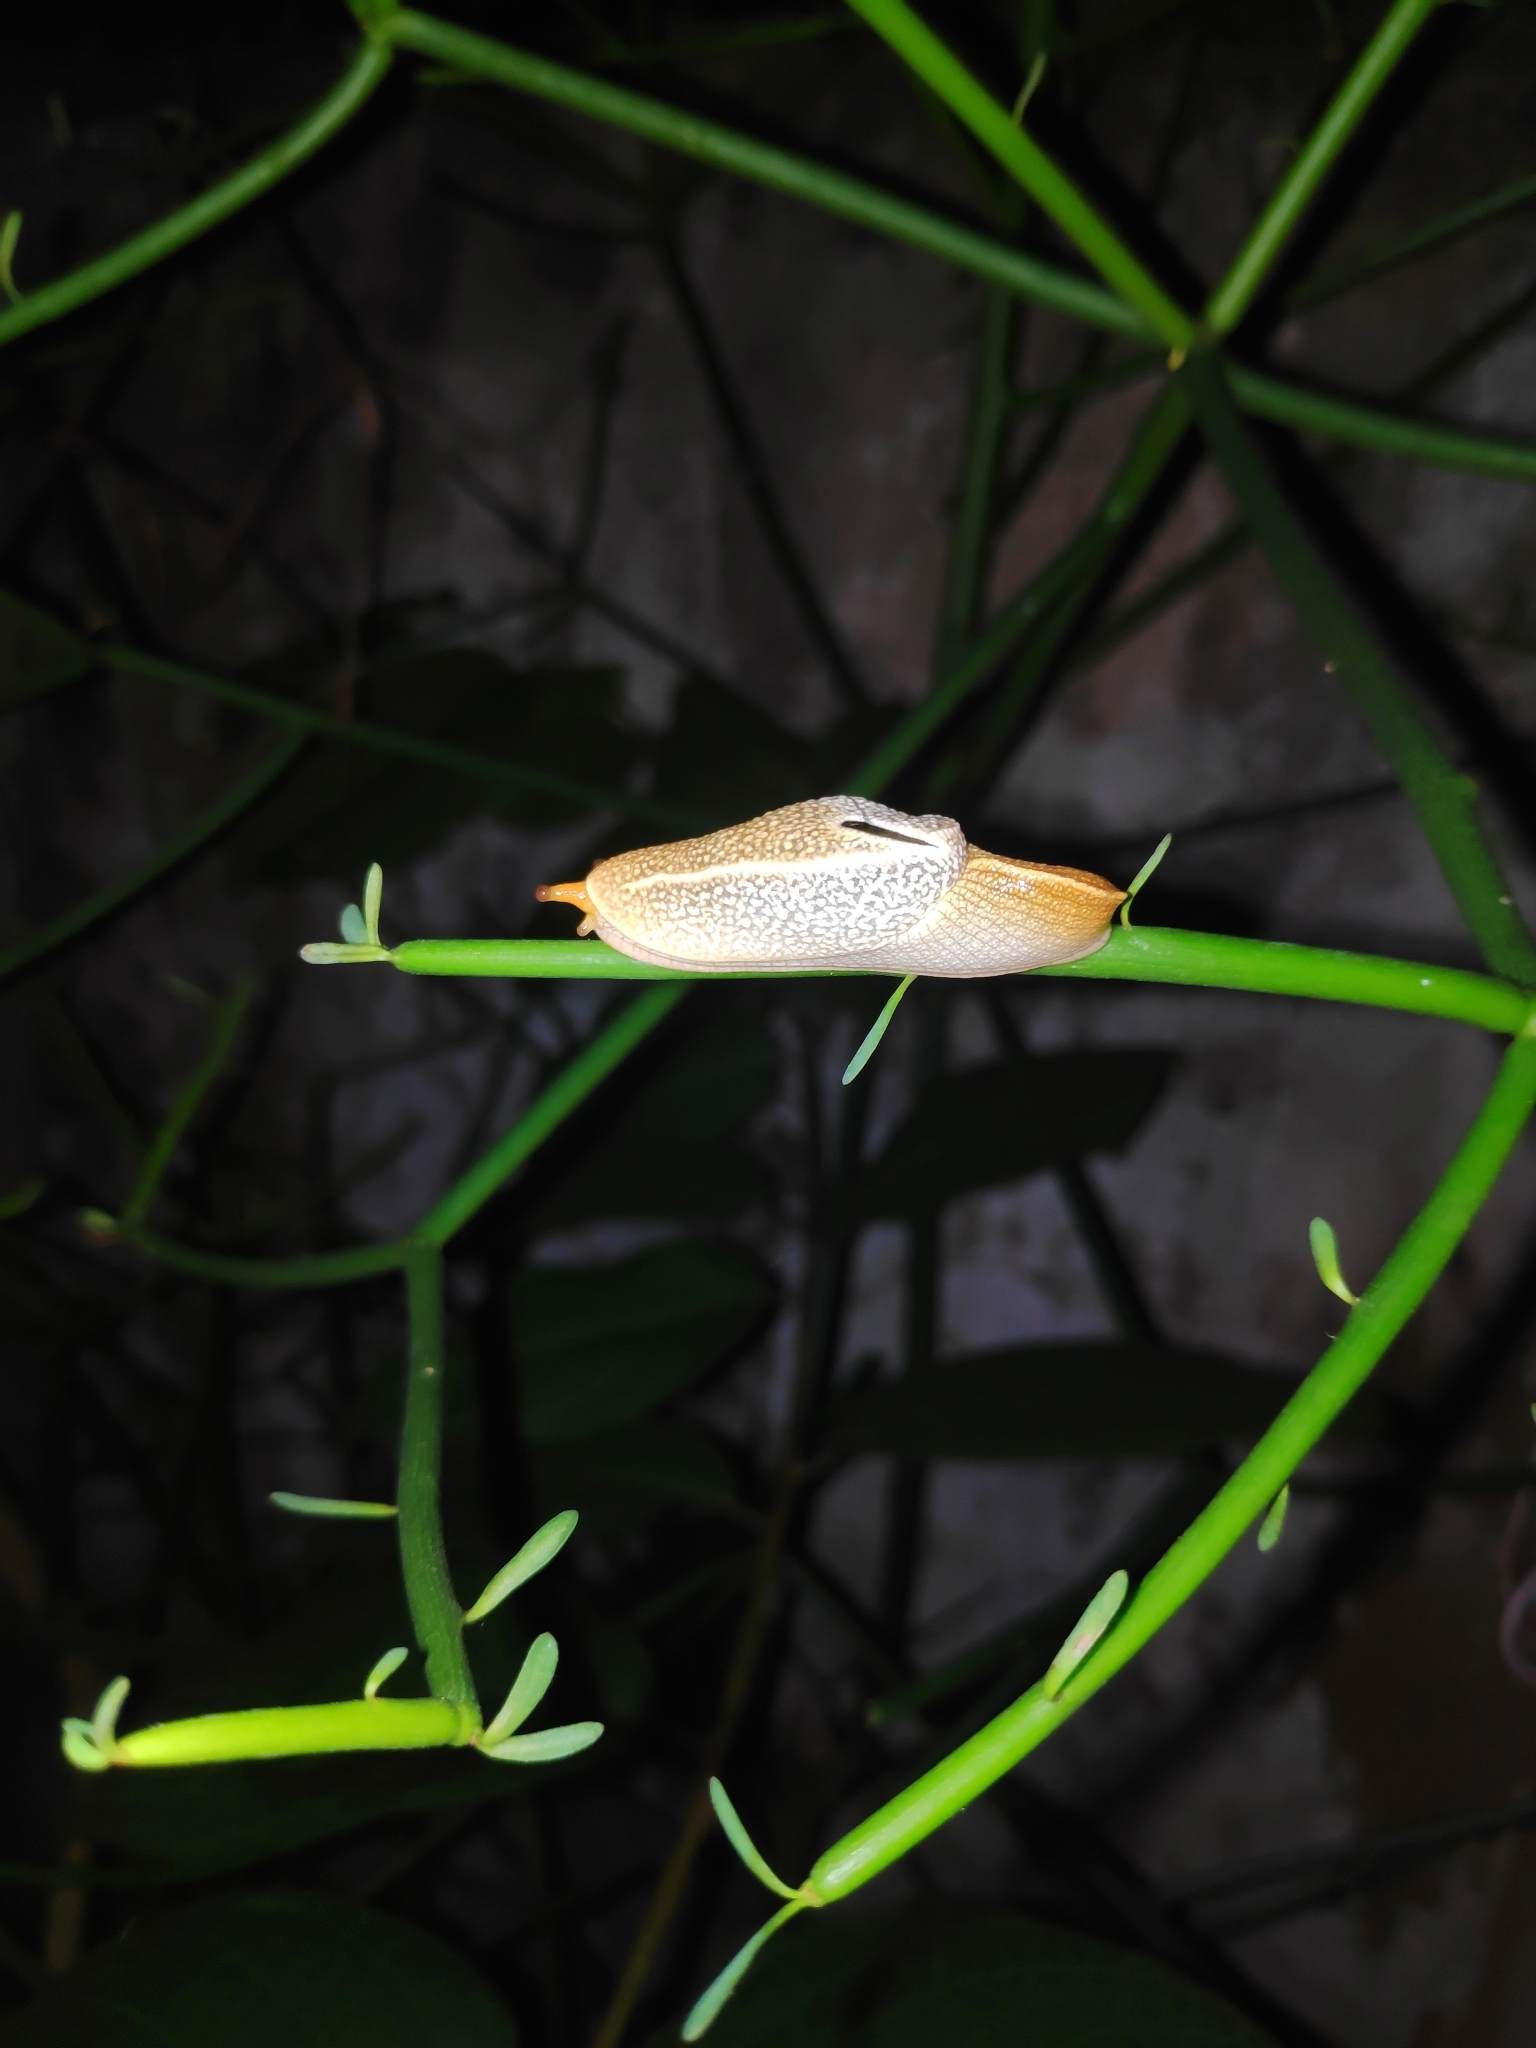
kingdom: Animalia
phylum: Mollusca
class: Gastropoda
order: Stylommatophora
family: Helicarionidae
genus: Girasia
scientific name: Girasia crocea
